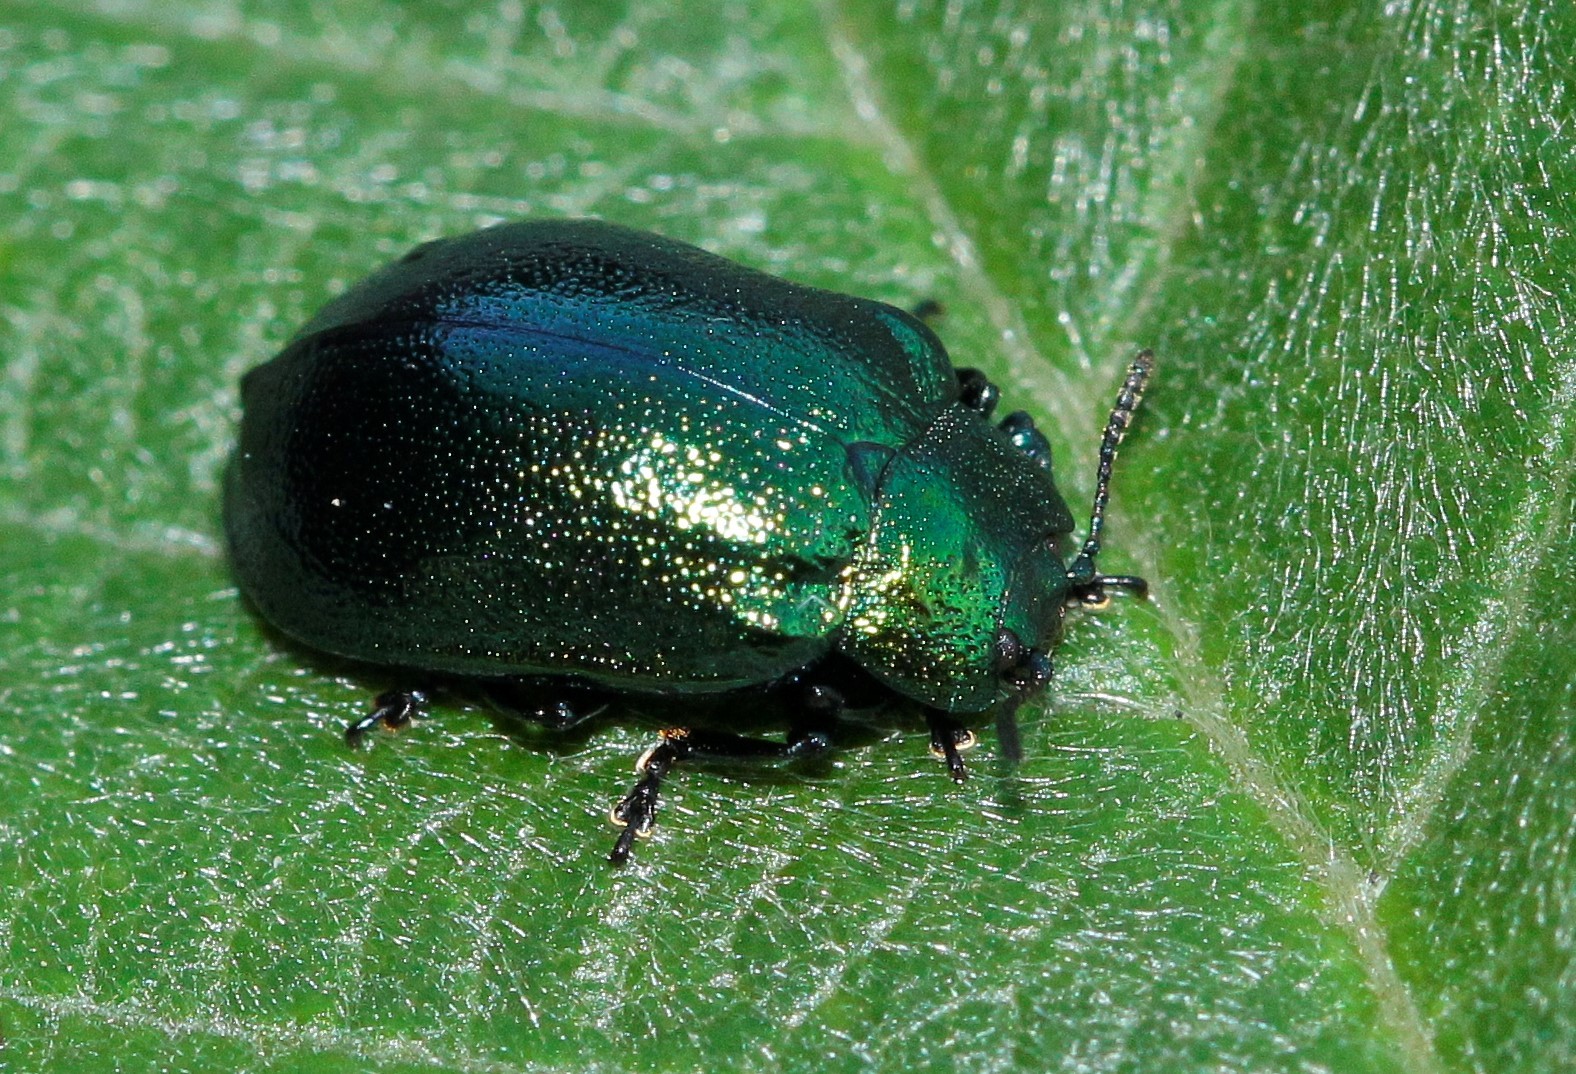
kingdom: Animalia
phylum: Arthropoda
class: Insecta
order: Coleoptera
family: Chrysomelidae
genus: Plagiosterna
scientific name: Plagiosterna aenea
